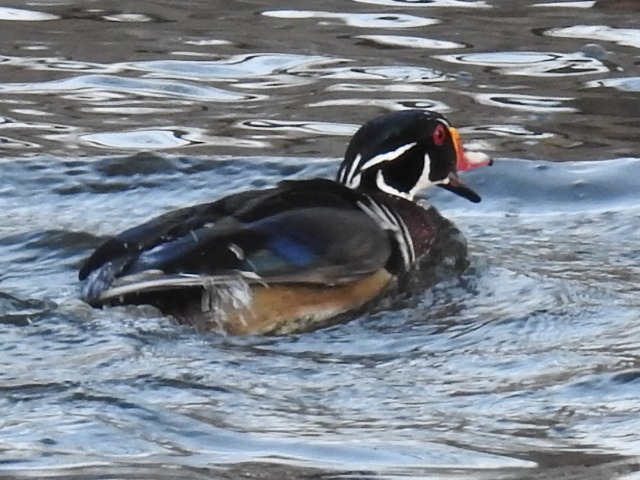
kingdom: Animalia
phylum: Chordata
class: Aves
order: Anseriformes
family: Anatidae
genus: Aix
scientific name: Aix sponsa
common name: Wood duck
